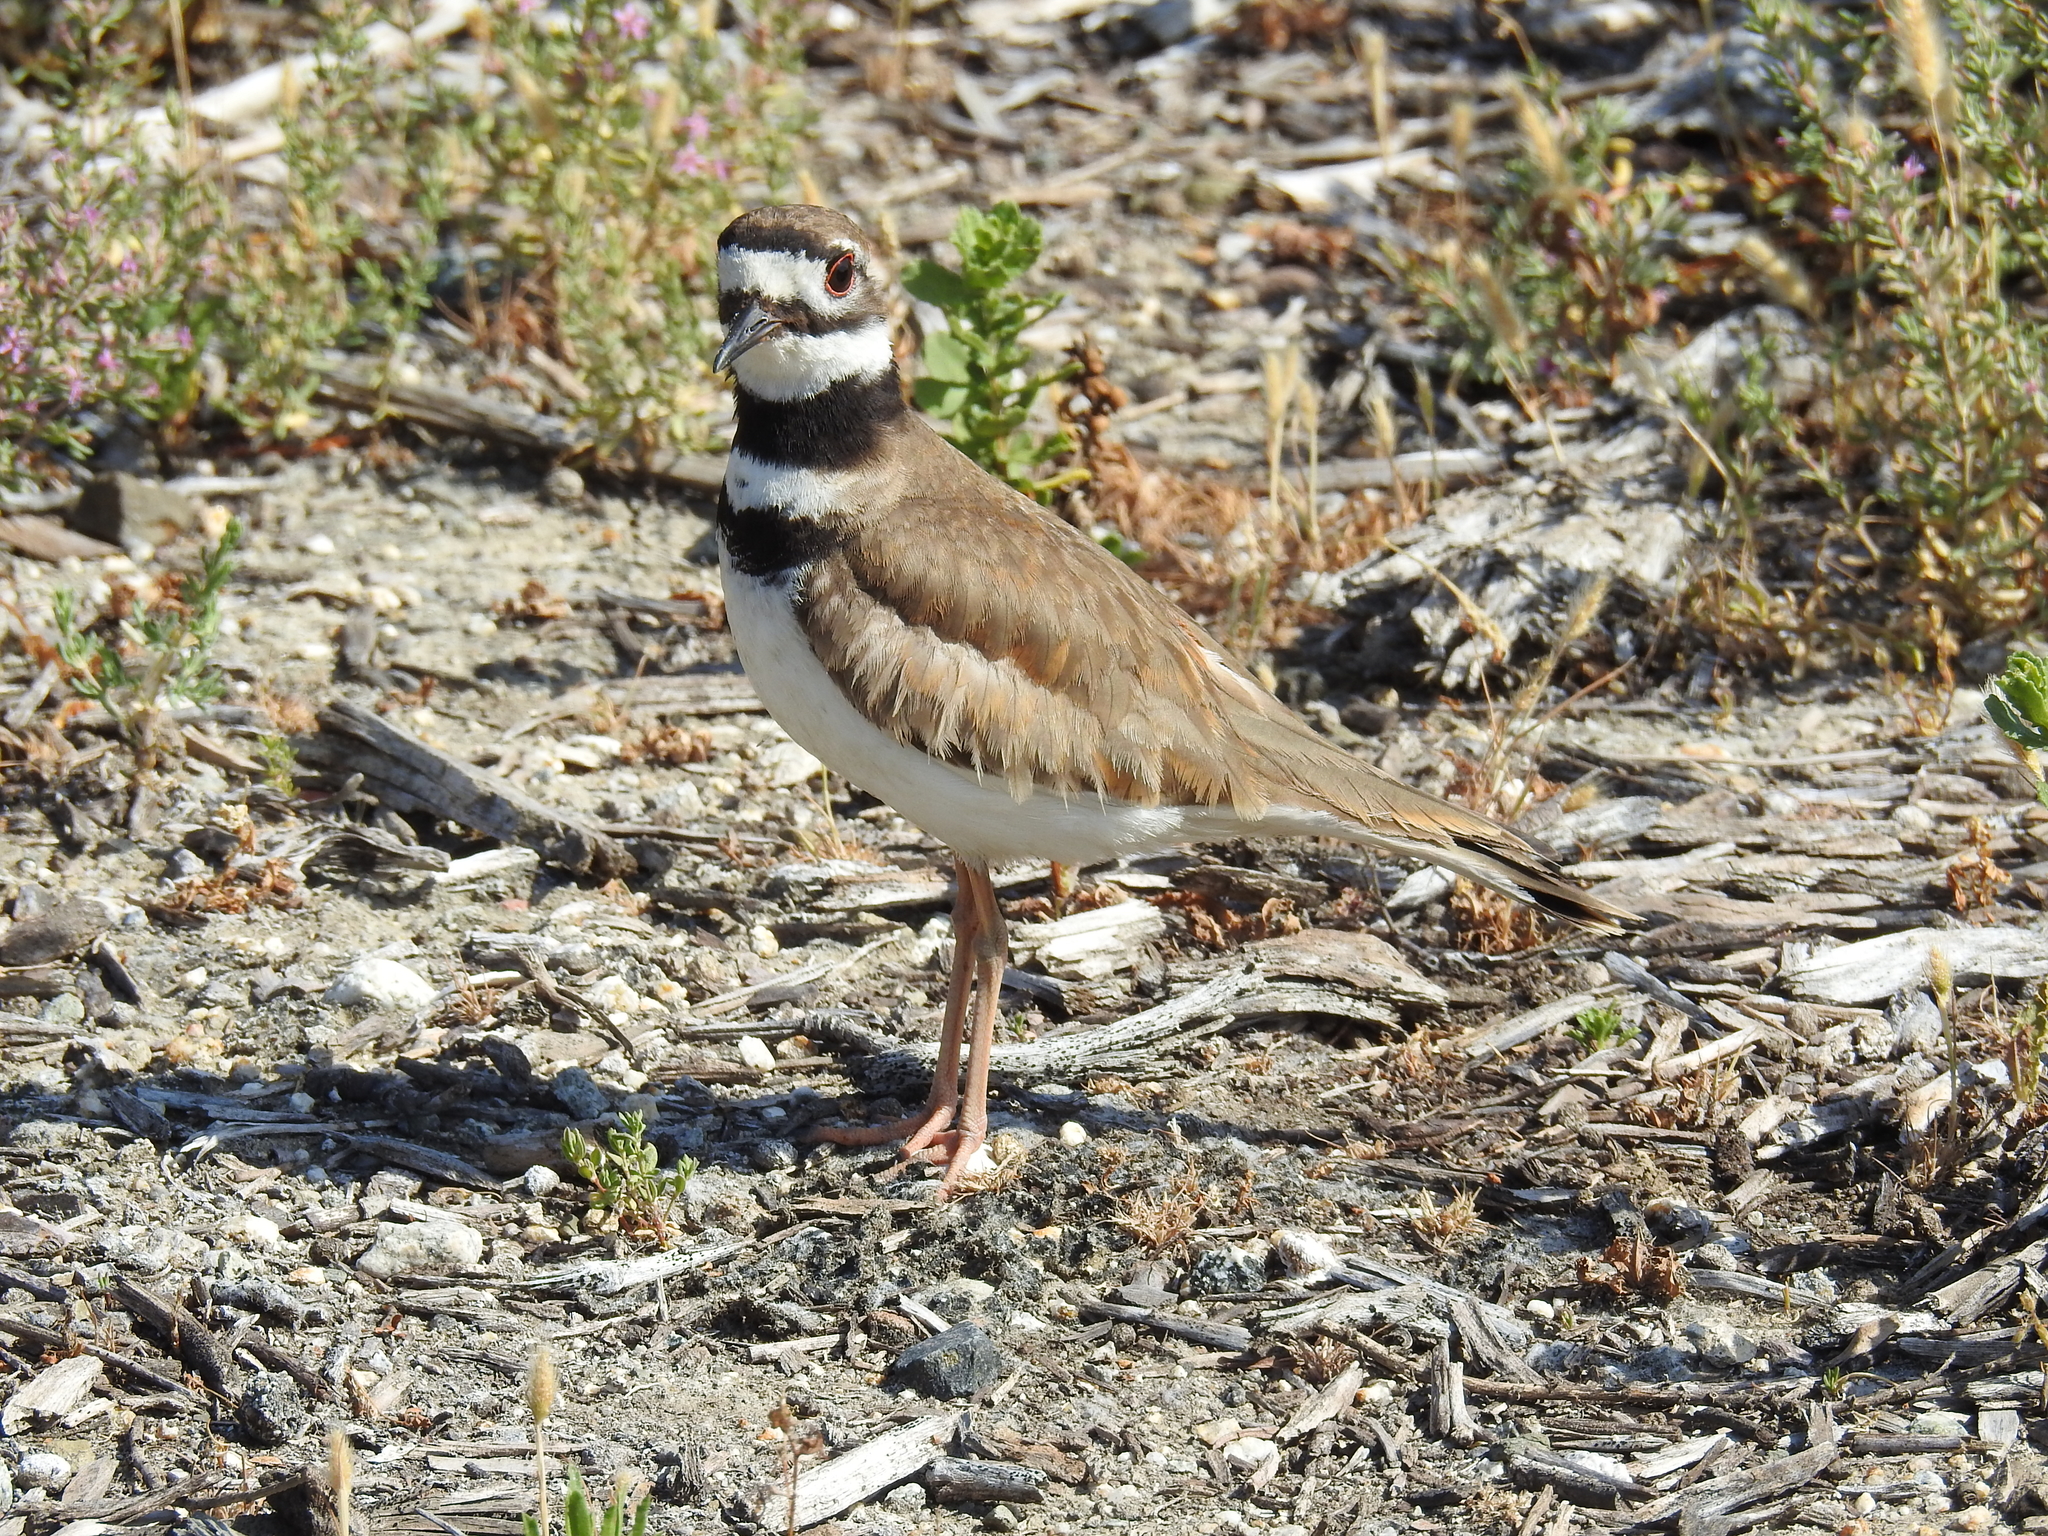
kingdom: Animalia
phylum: Chordata
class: Aves
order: Charadriiformes
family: Charadriidae
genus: Charadrius
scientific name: Charadrius vociferus
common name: Killdeer
